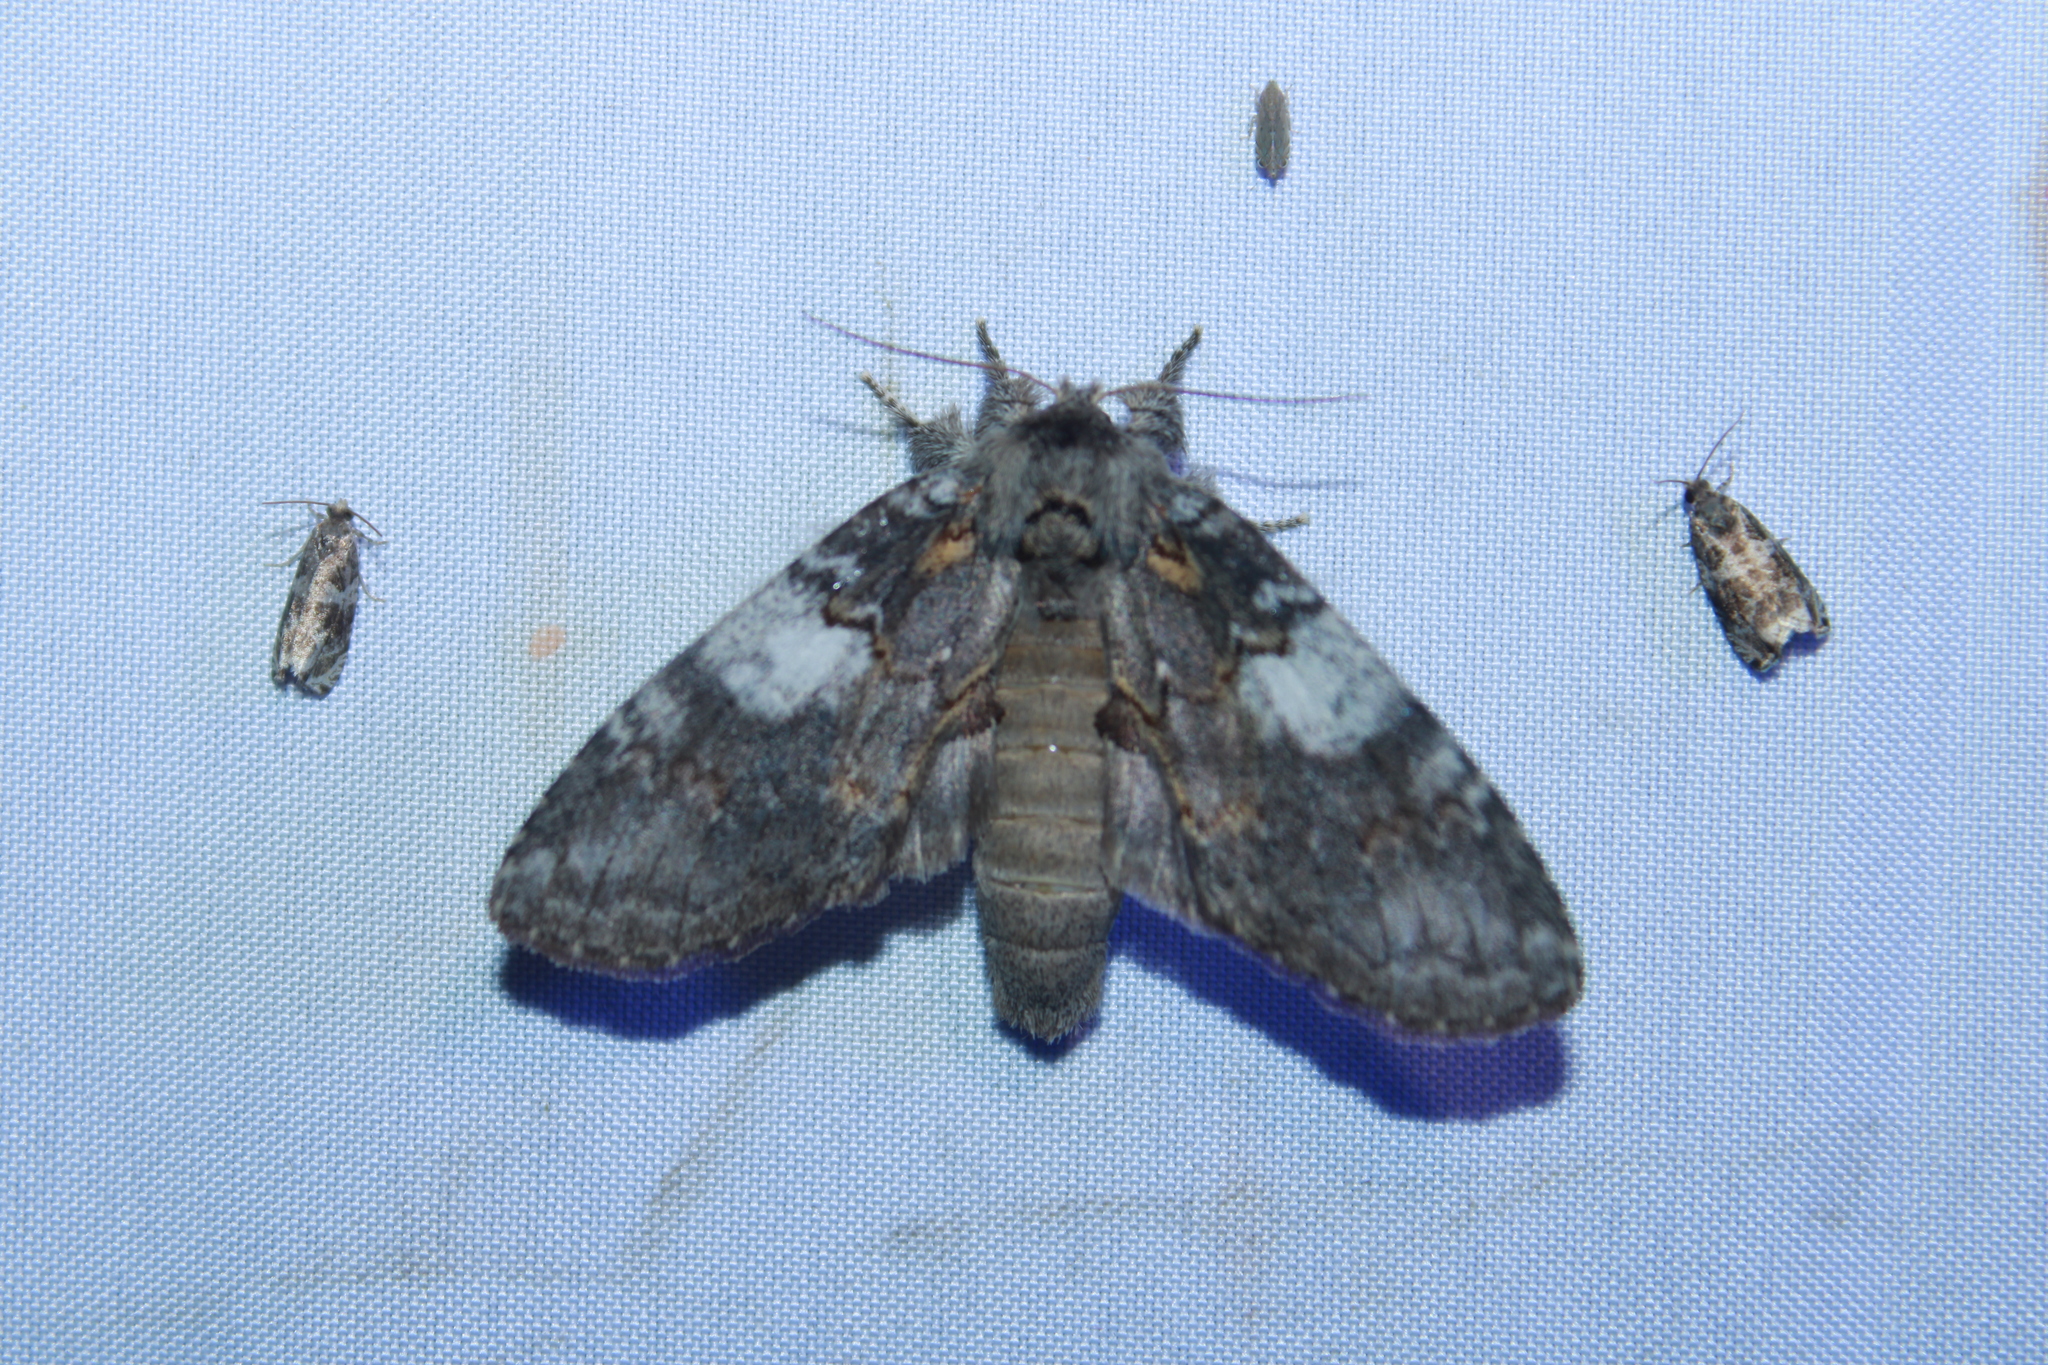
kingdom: Animalia
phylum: Arthropoda
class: Insecta
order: Lepidoptera
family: Notodontidae
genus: Peridea
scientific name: Peridea angulosa
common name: Angulose prominent
